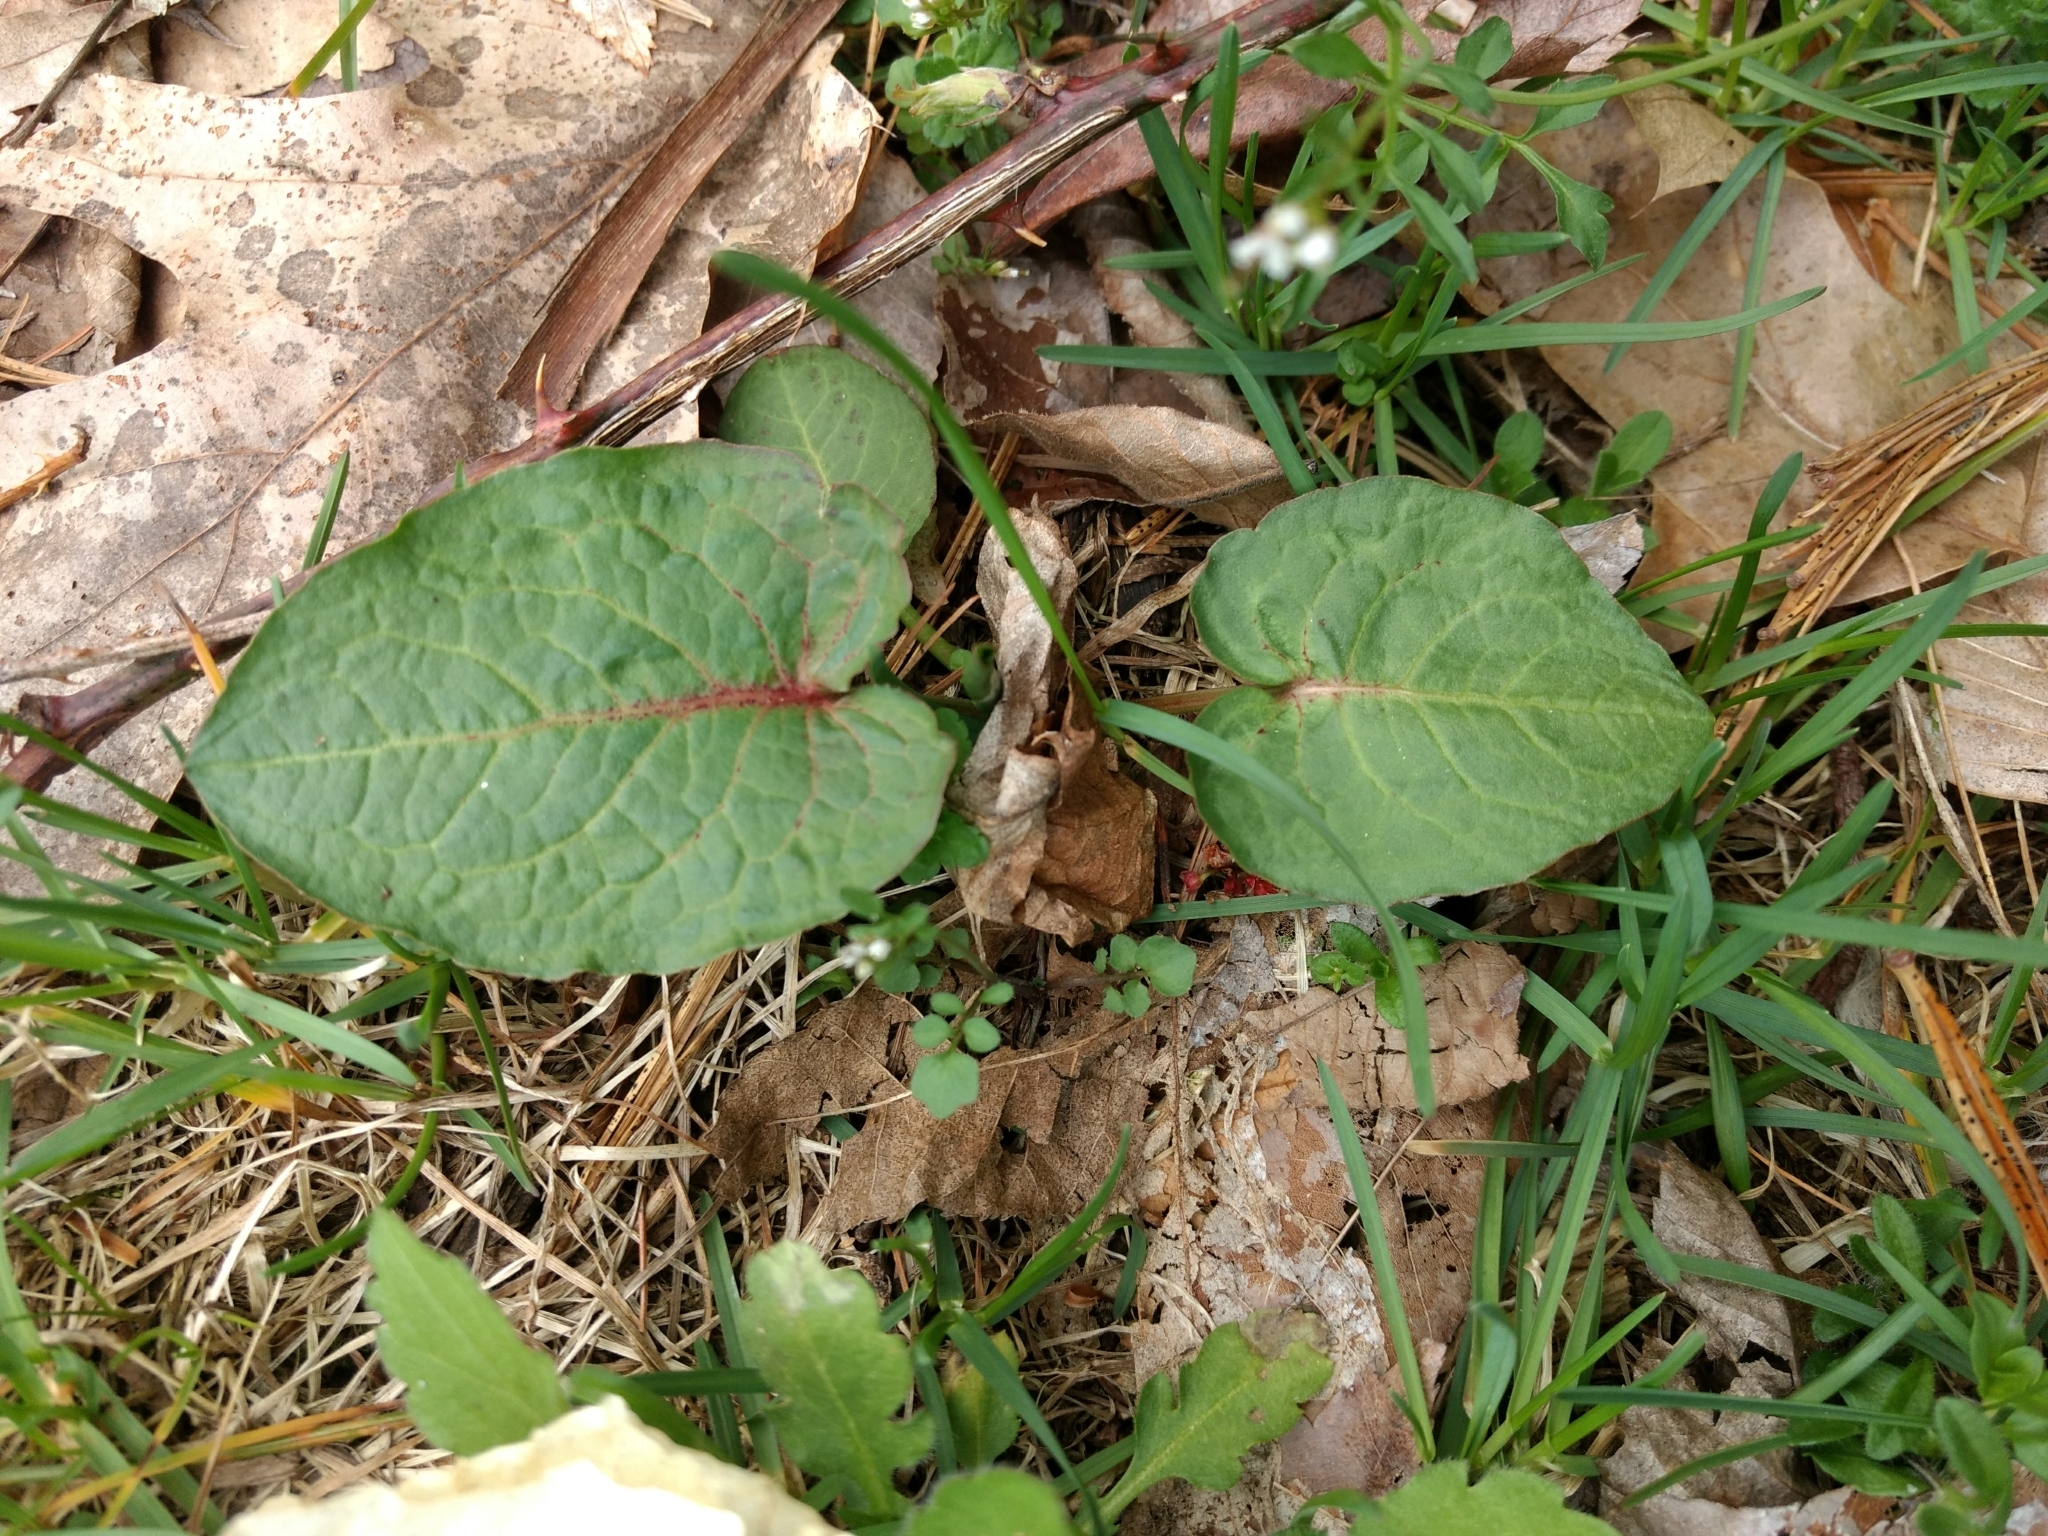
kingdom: Plantae
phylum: Tracheophyta
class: Magnoliopsida
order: Caryophyllales
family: Polygonaceae
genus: Rumex
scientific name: Rumex obtusifolius
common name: Bitter dock
